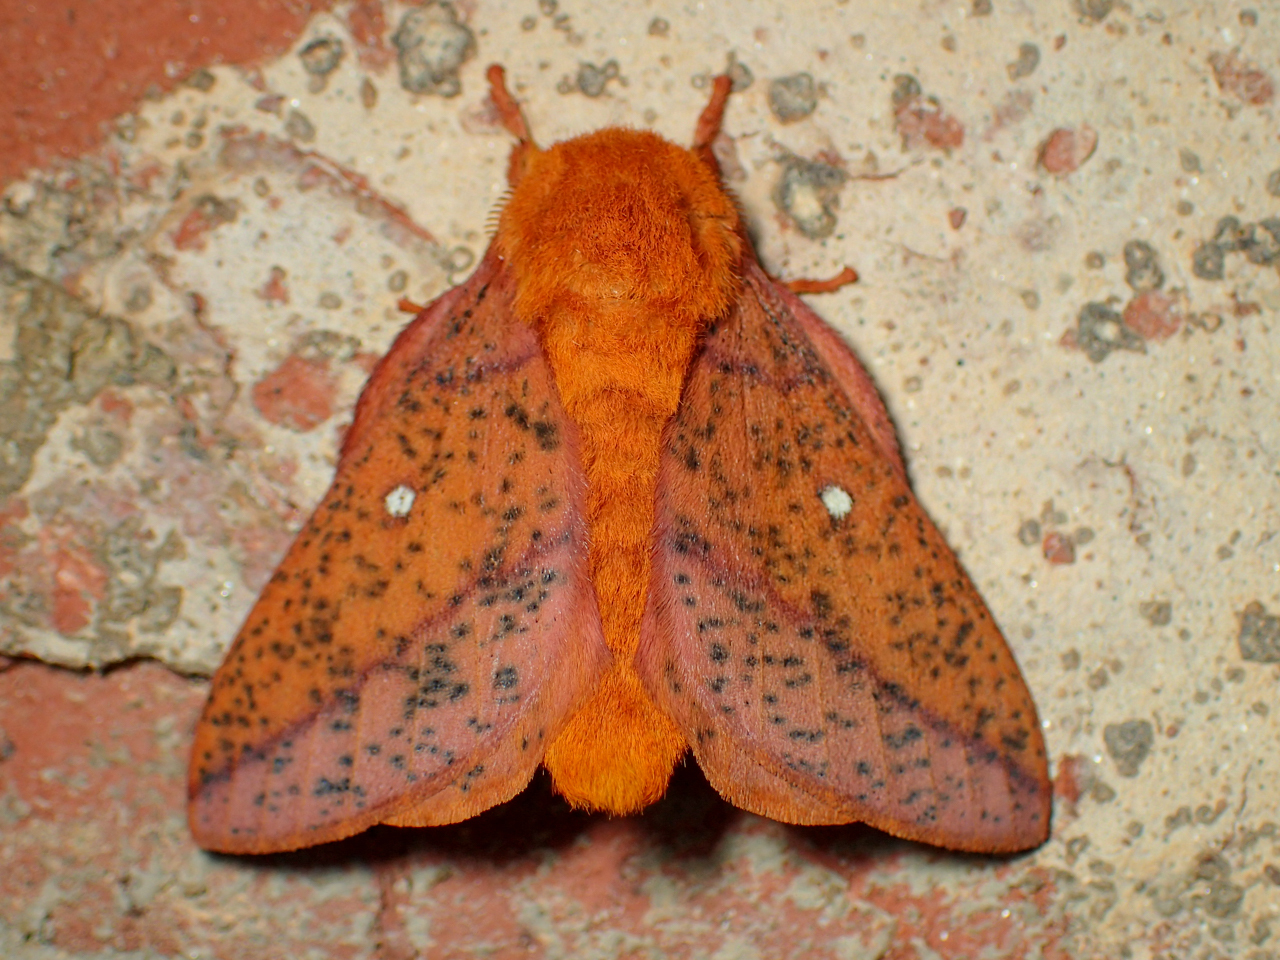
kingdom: Animalia
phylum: Arthropoda
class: Insecta
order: Lepidoptera
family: Saturniidae
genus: Anisota
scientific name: Anisota stigma
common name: Spiny oakworm moth
